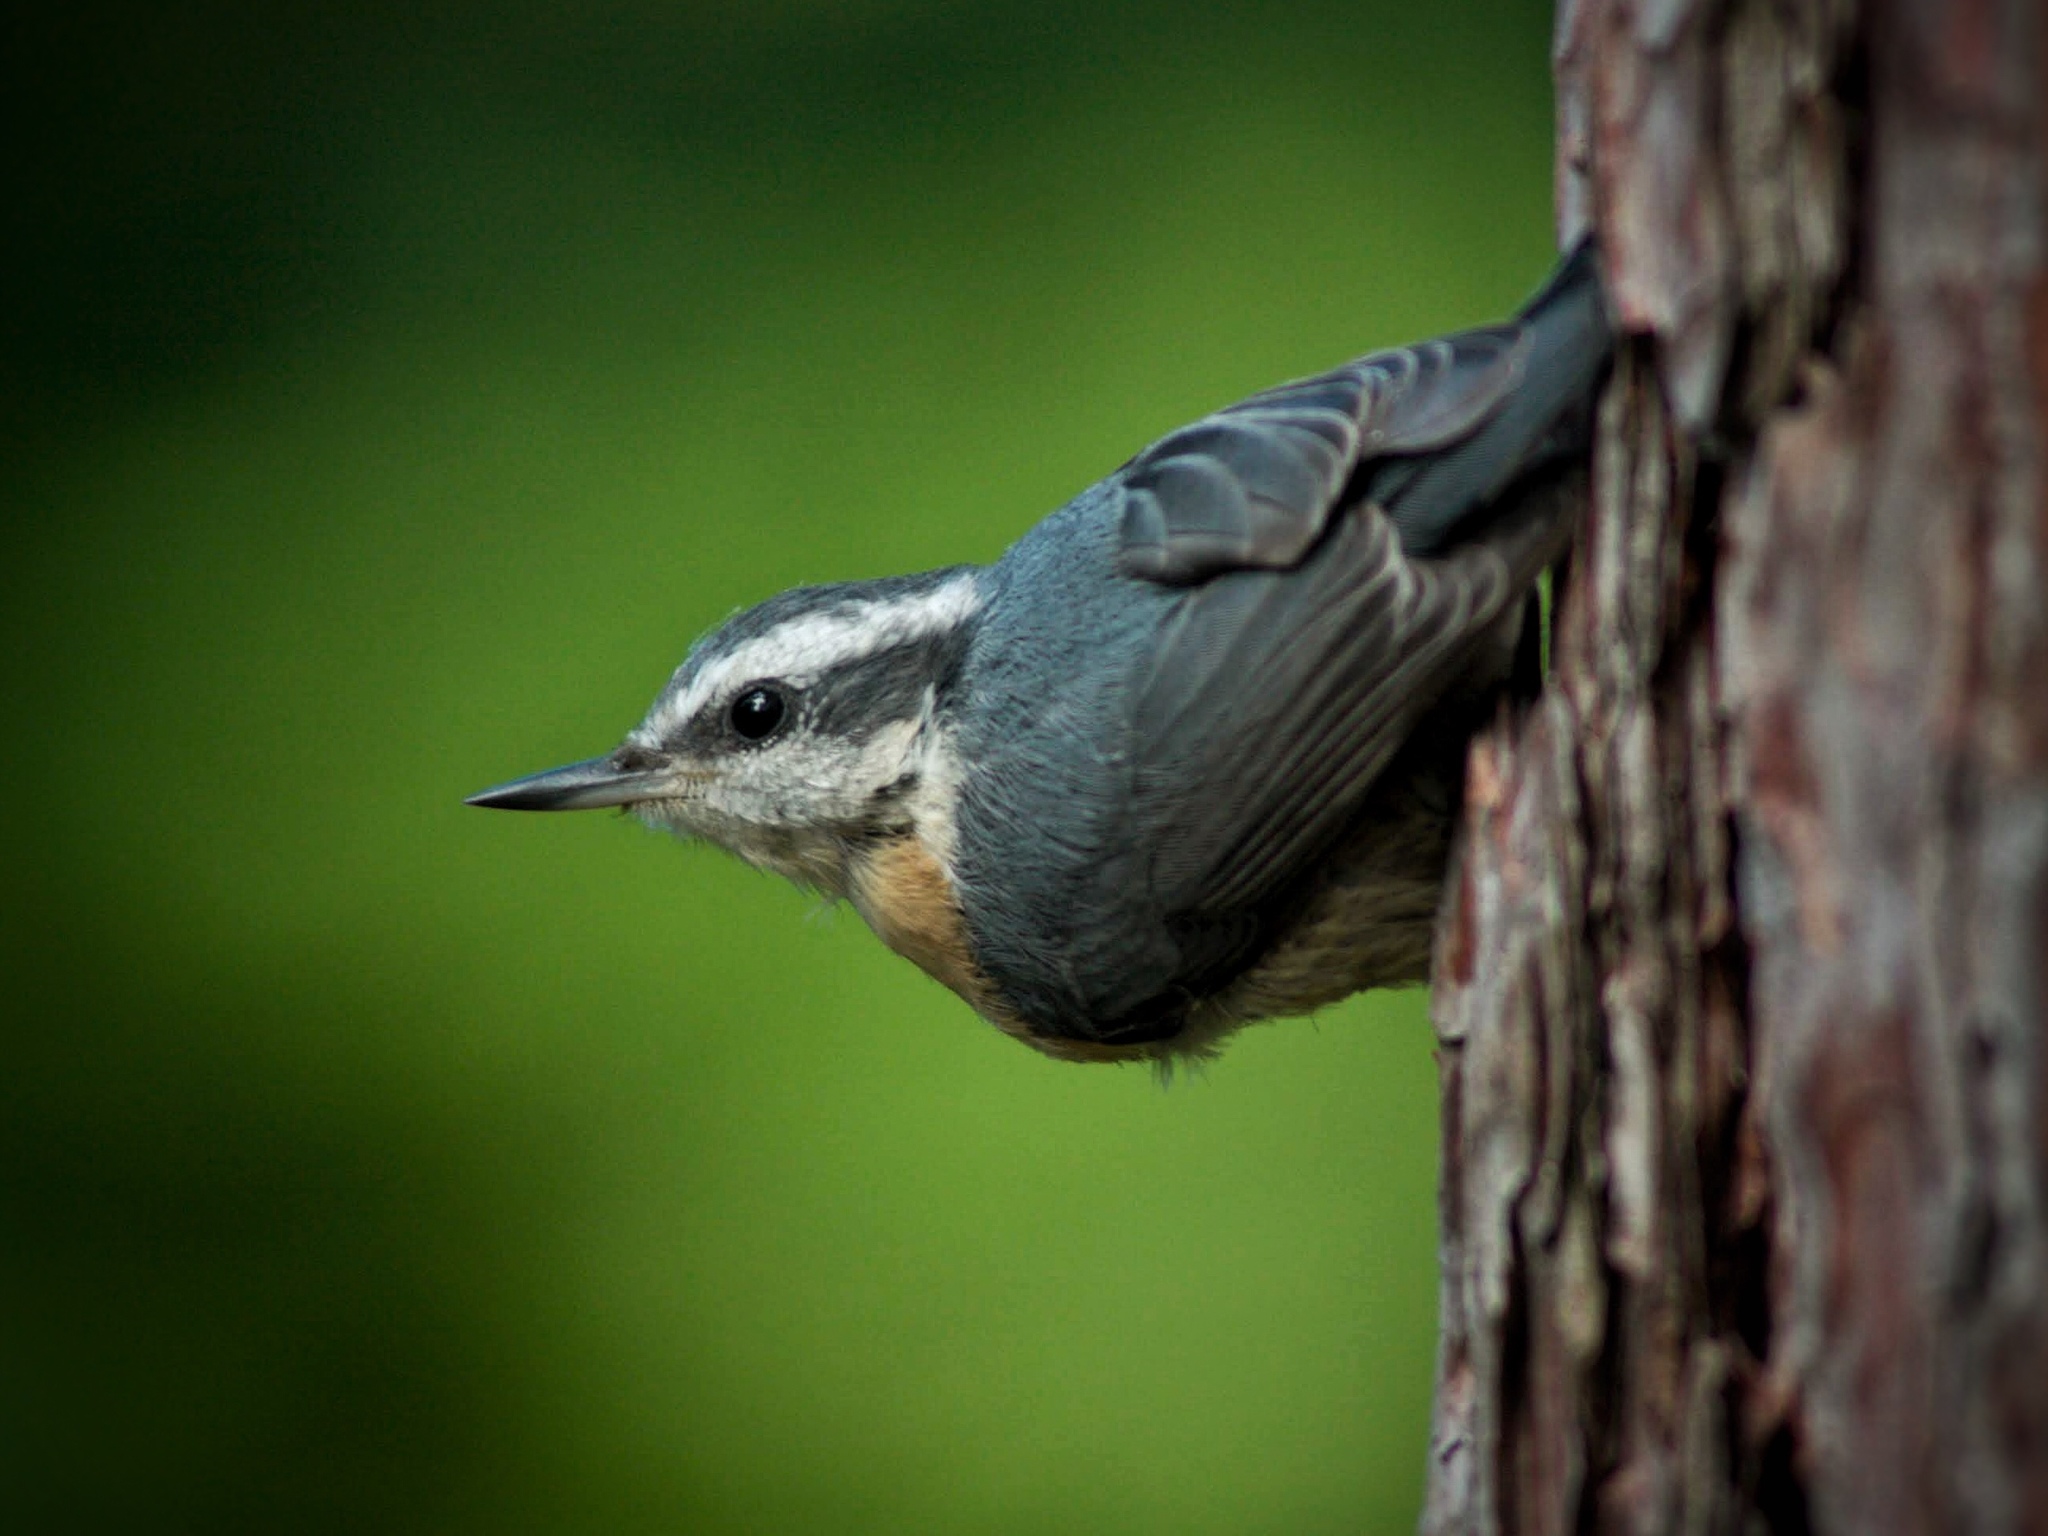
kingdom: Animalia
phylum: Chordata
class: Aves
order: Passeriformes
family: Sittidae
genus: Sitta
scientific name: Sitta canadensis
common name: Red-breasted nuthatch
